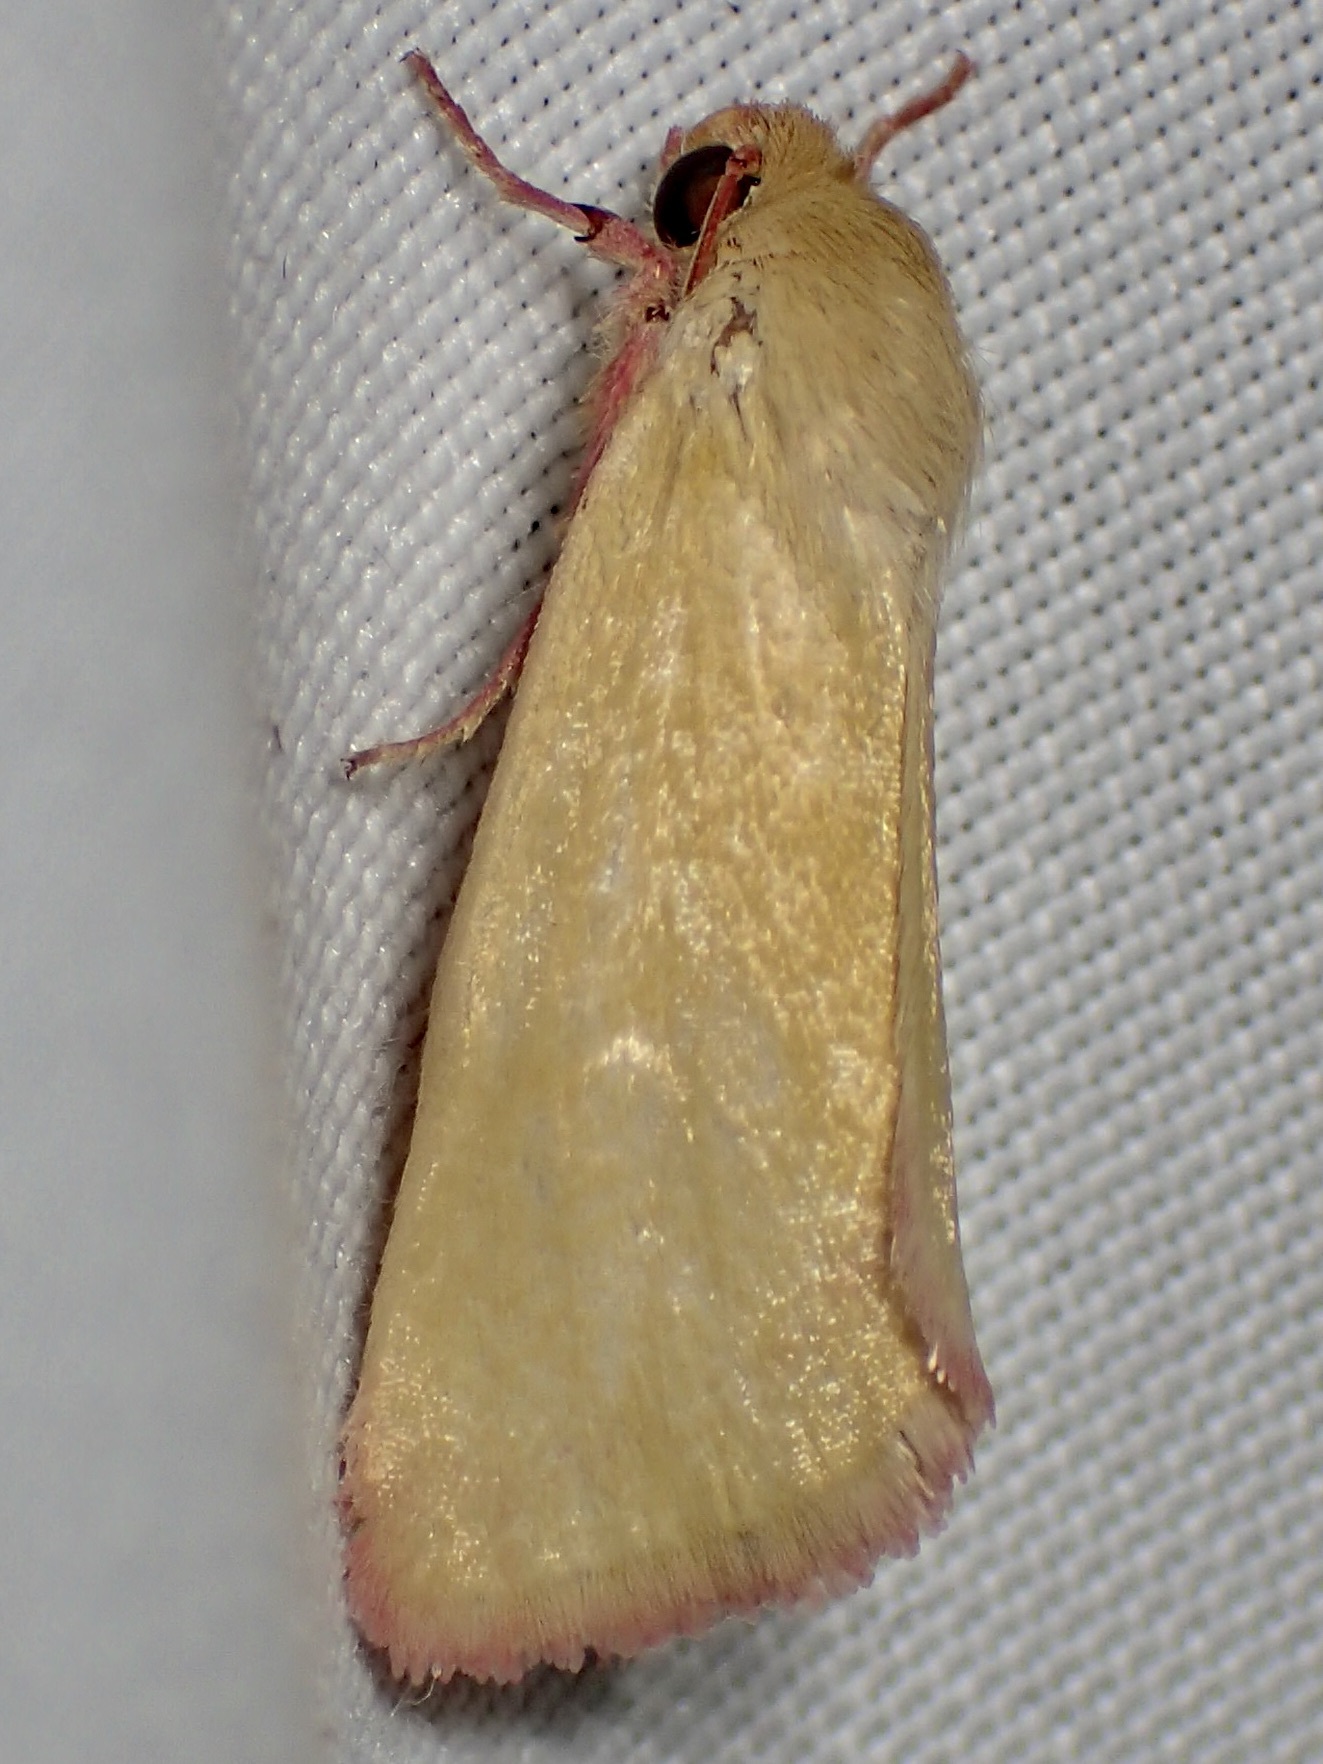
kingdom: Animalia
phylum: Arthropoda
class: Insecta
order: Lepidoptera
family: Noctuidae
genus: Heliocheilus
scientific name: Heliocheilus toralis
